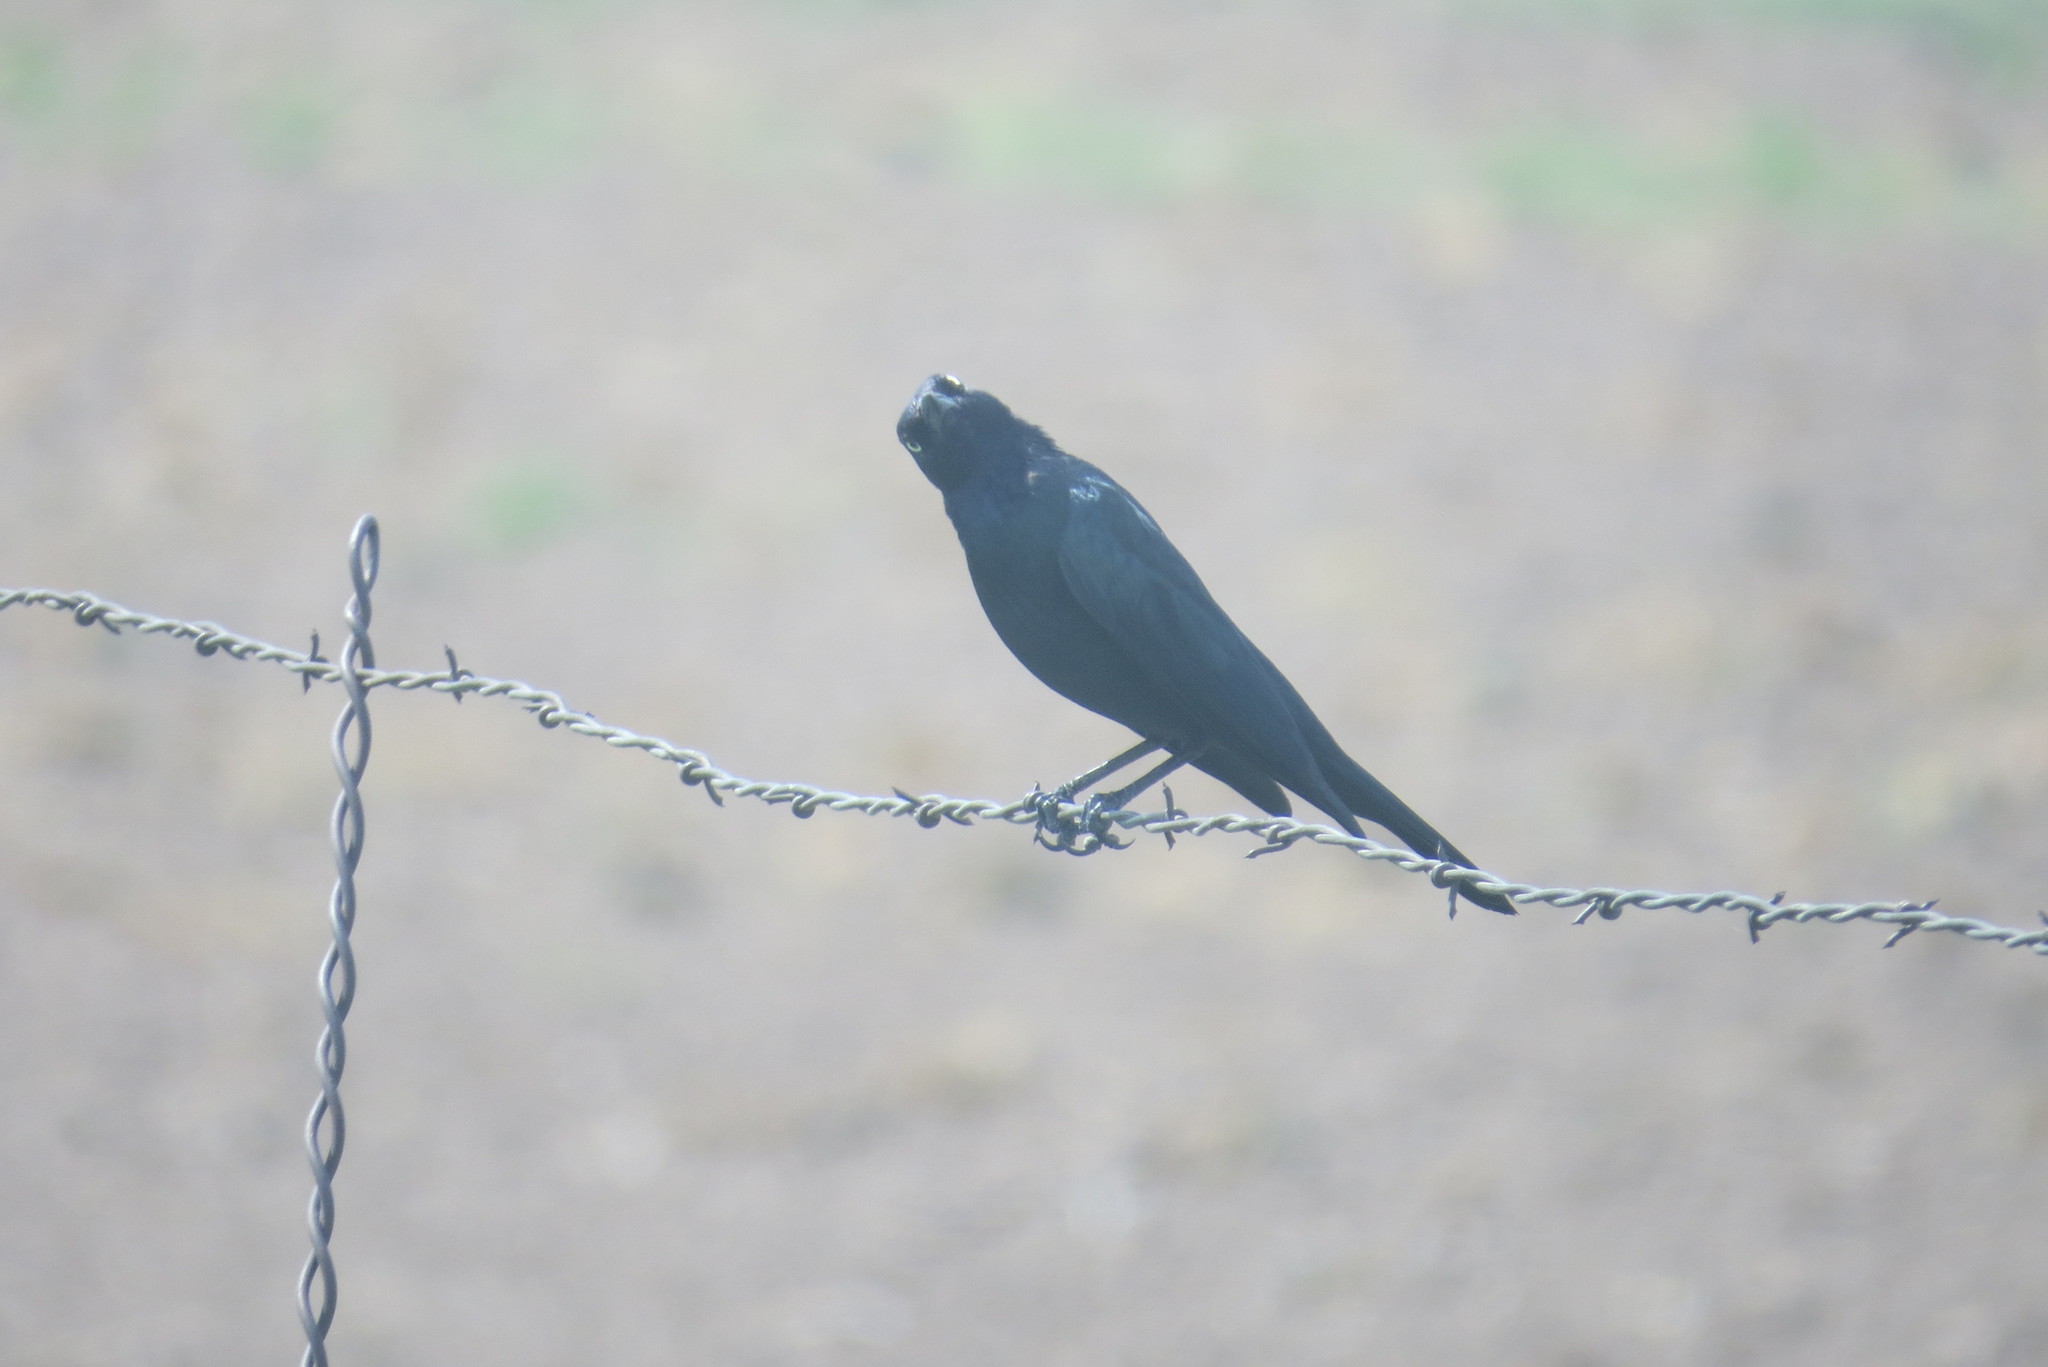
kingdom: Animalia
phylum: Chordata
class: Aves
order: Passeriformes
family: Icteridae
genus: Euphagus
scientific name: Euphagus cyanocephalus
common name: Brewer's blackbird
